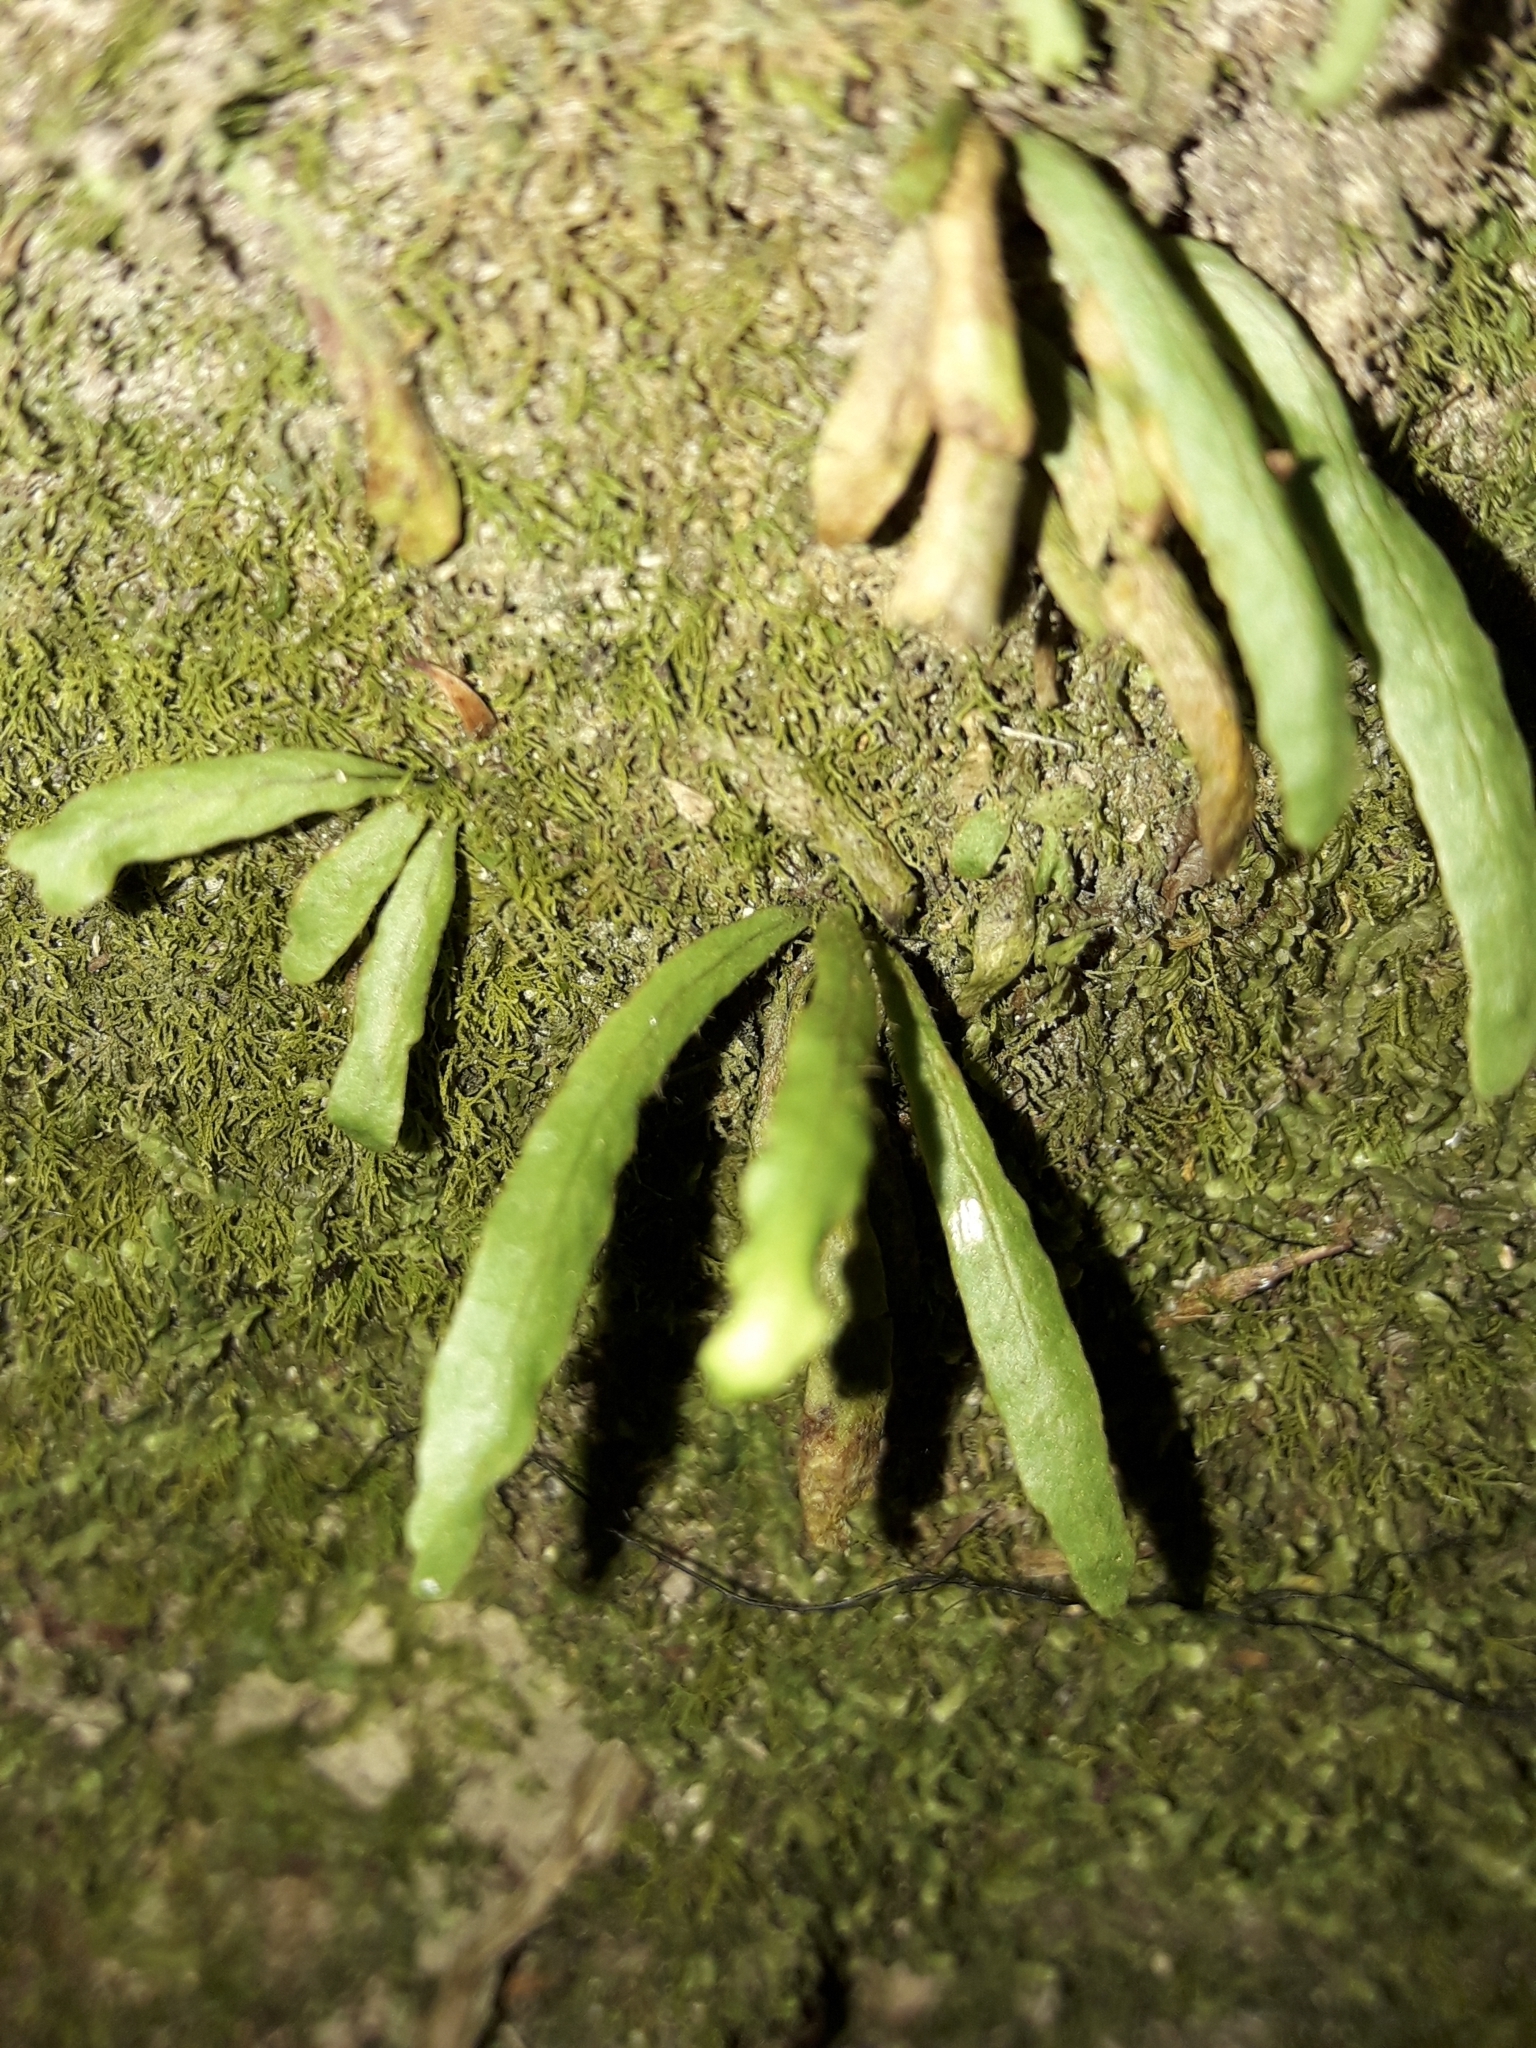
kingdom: Plantae
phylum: Tracheophyta
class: Polypodiopsida
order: Polypodiales
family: Polypodiaceae
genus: Notogrammitis
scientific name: Notogrammitis ciliata
